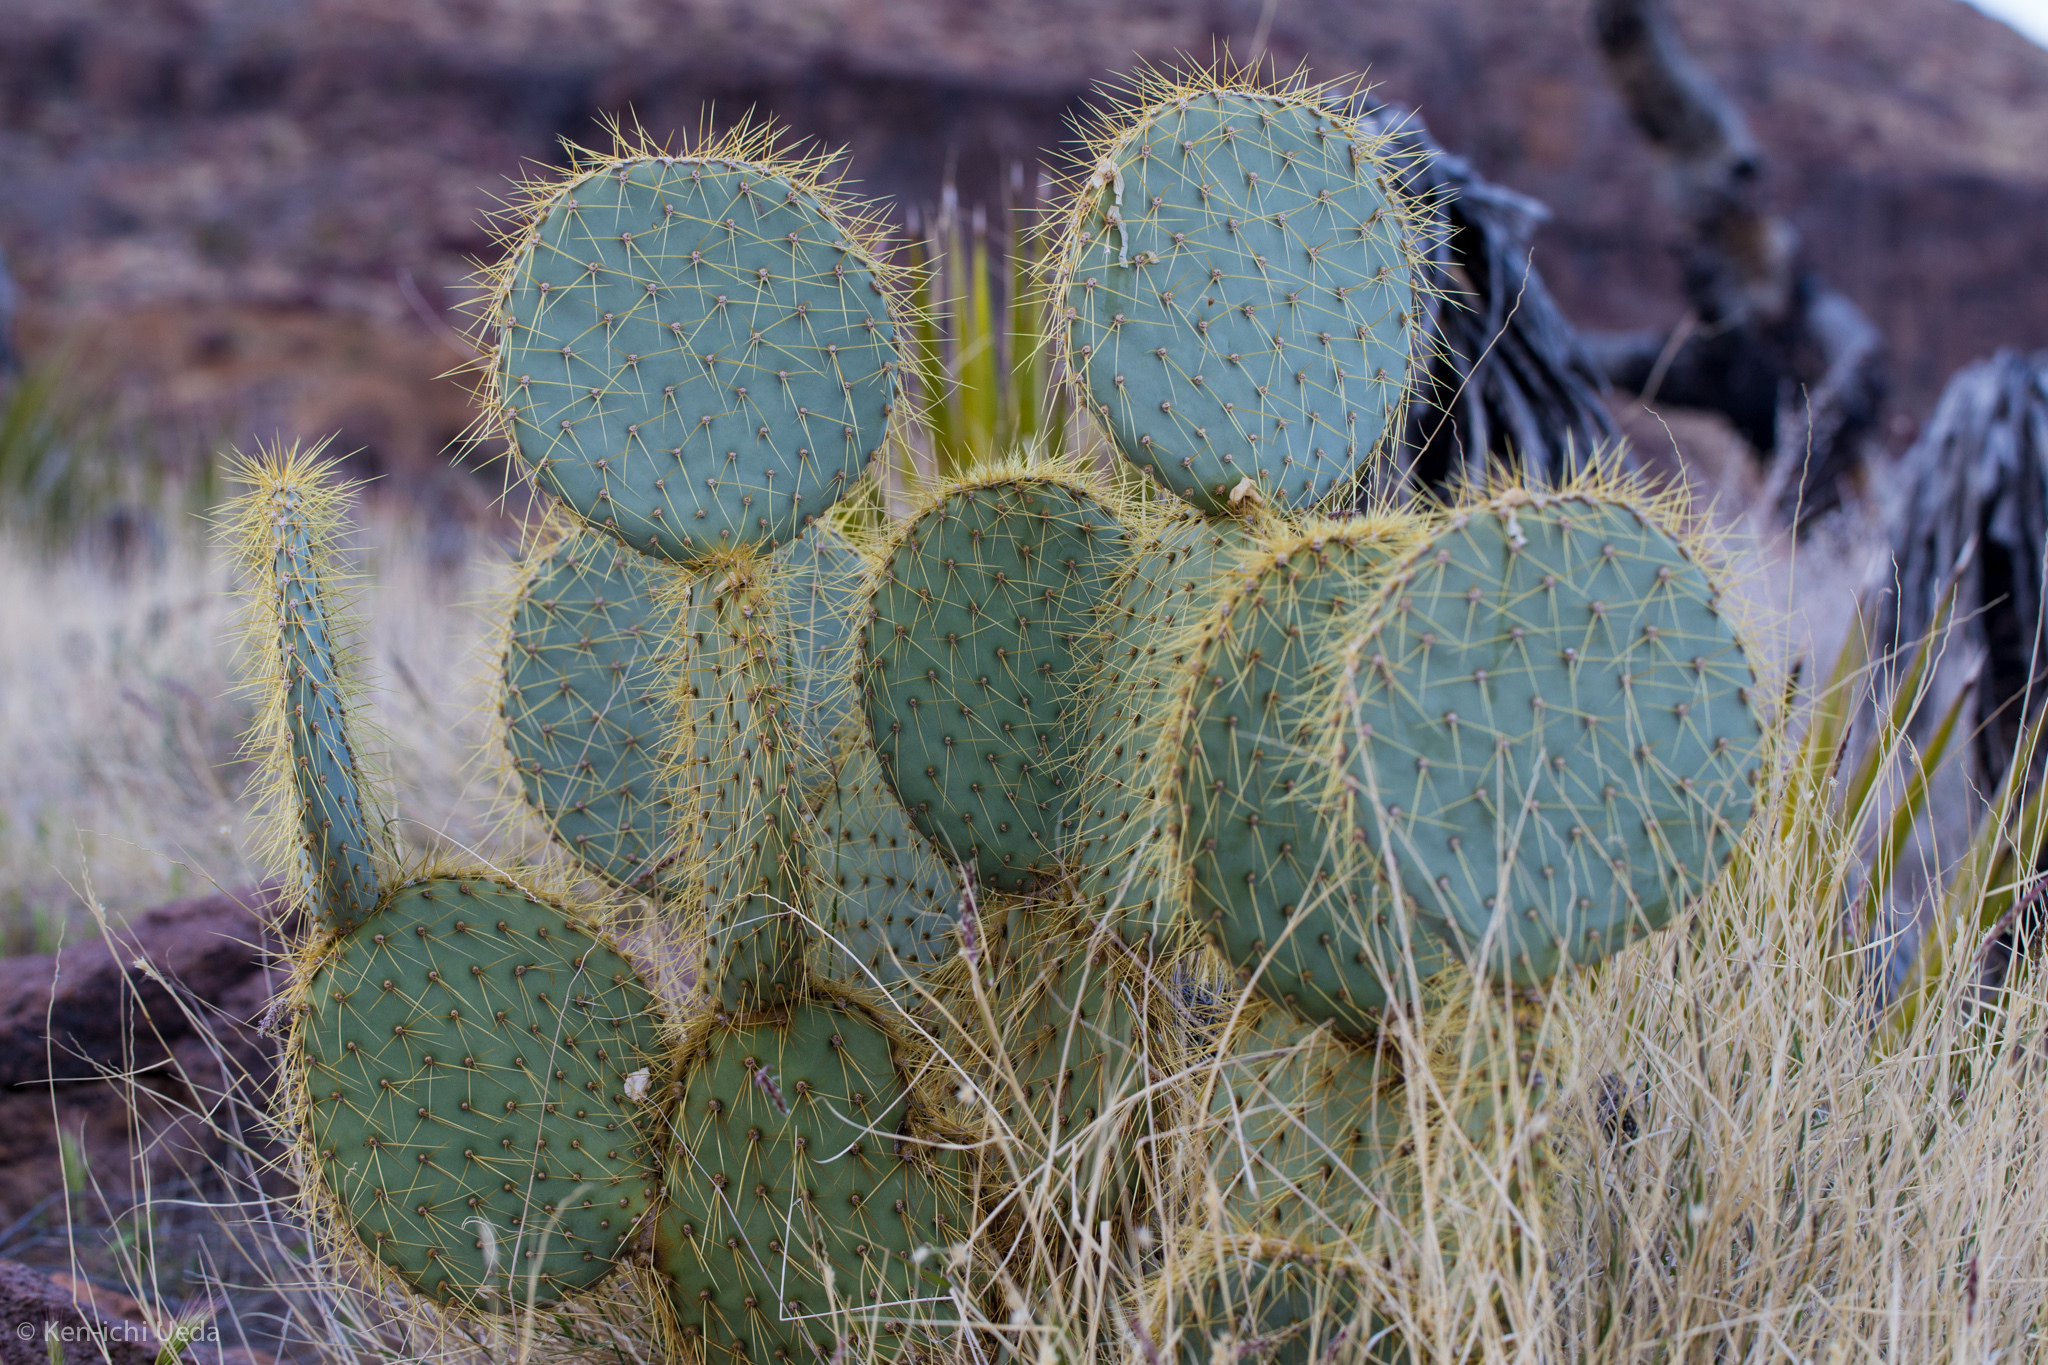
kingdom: Plantae
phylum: Tracheophyta
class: Magnoliopsida
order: Caryophyllales
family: Cactaceae
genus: Opuntia
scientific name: Opuntia chlorotica
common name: Dollar-joint prickly-pear
